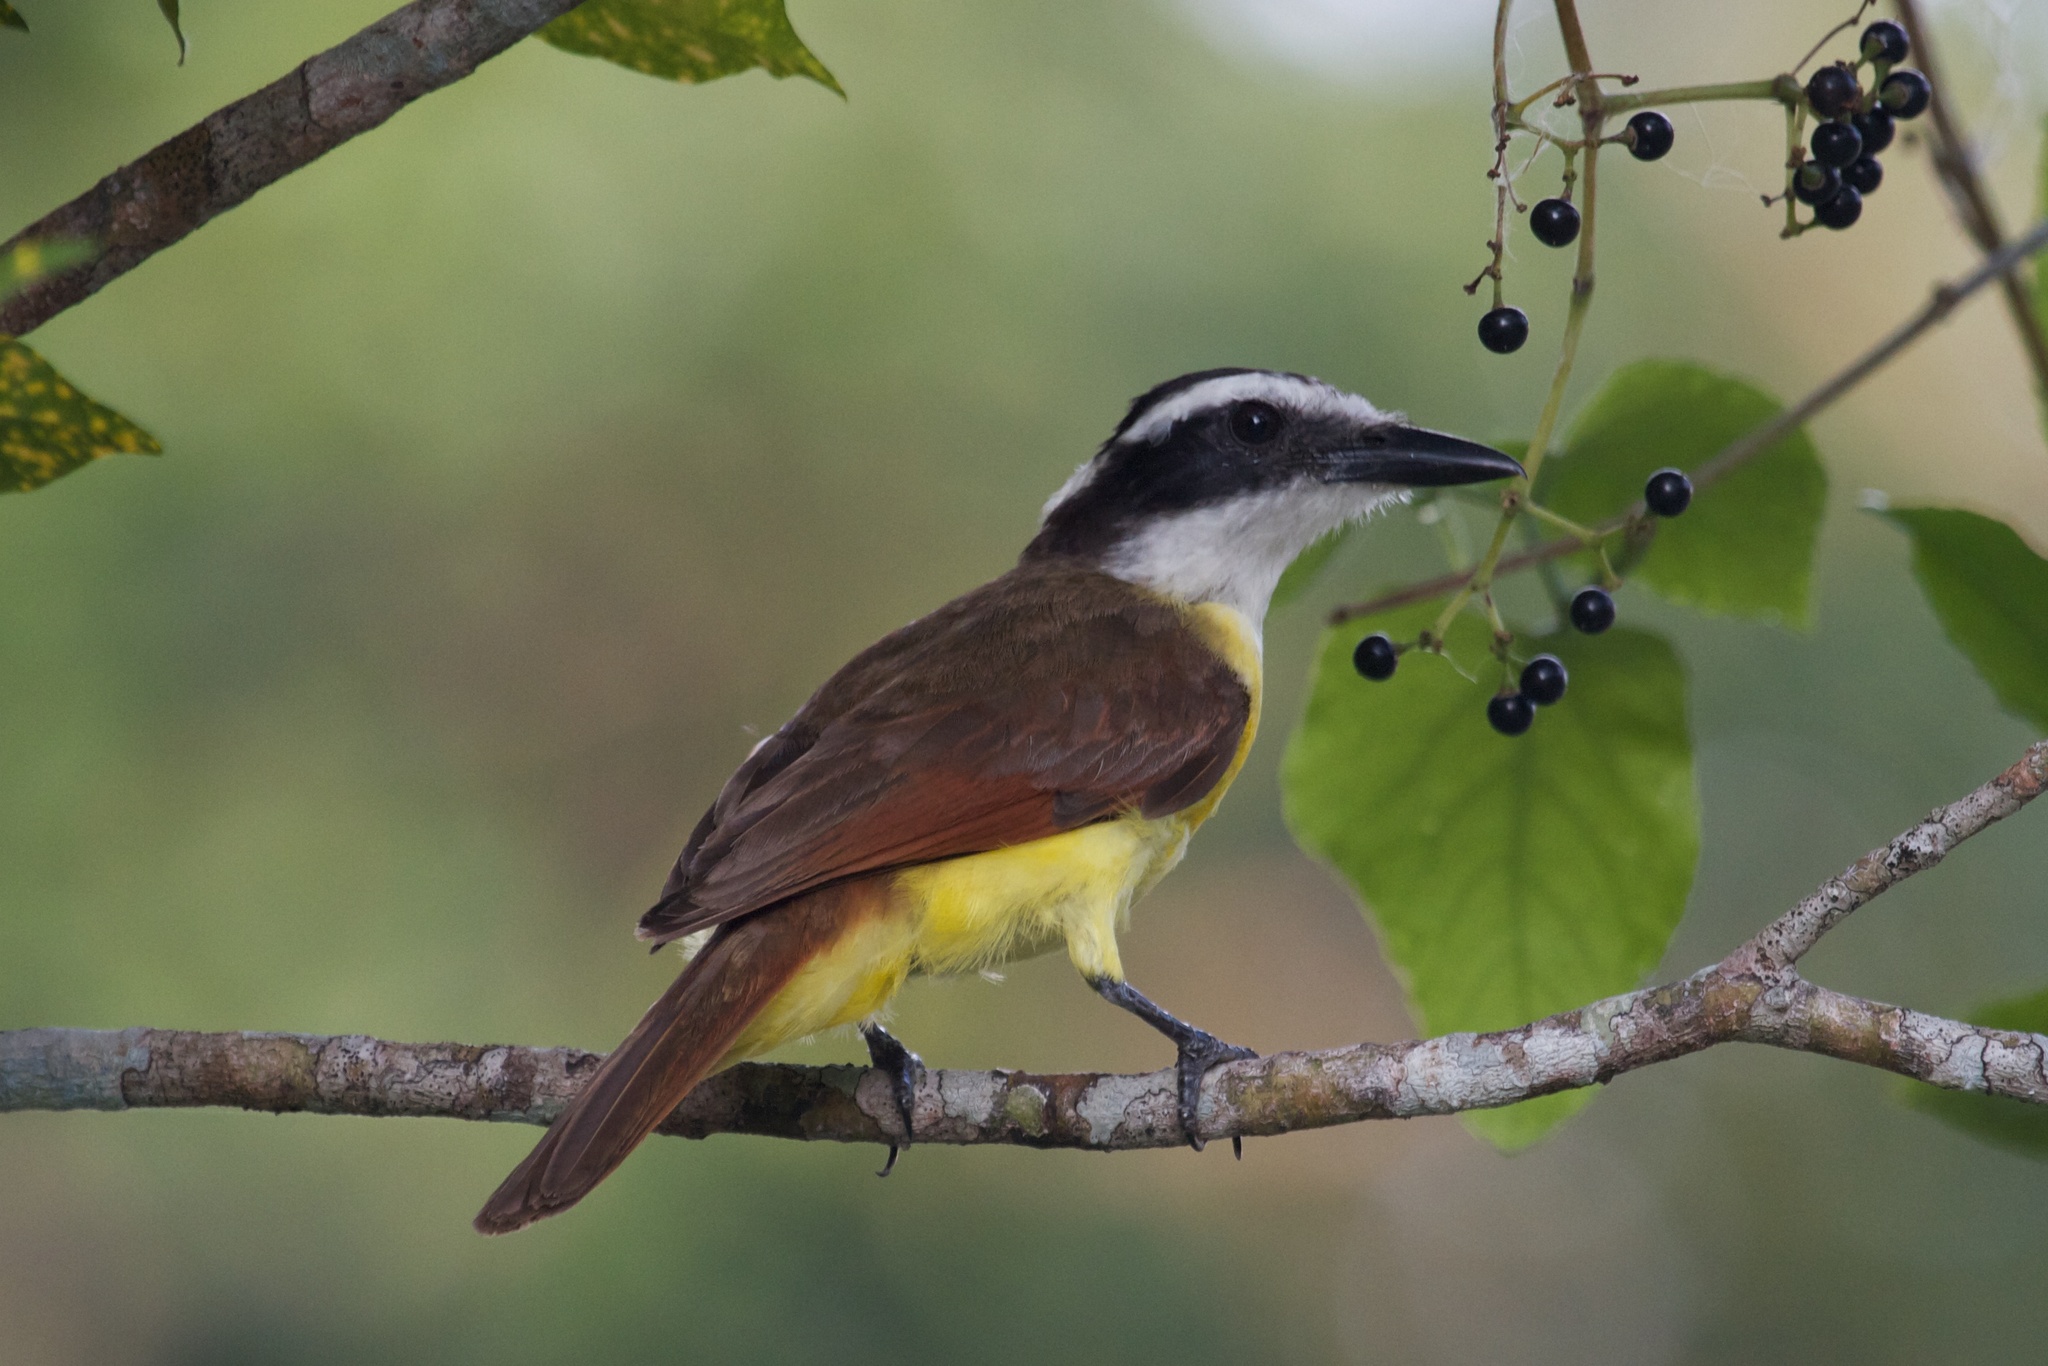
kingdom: Animalia
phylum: Chordata
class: Aves
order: Passeriformes
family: Tyrannidae
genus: Pitangus
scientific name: Pitangus sulphuratus
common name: Great kiskadee
